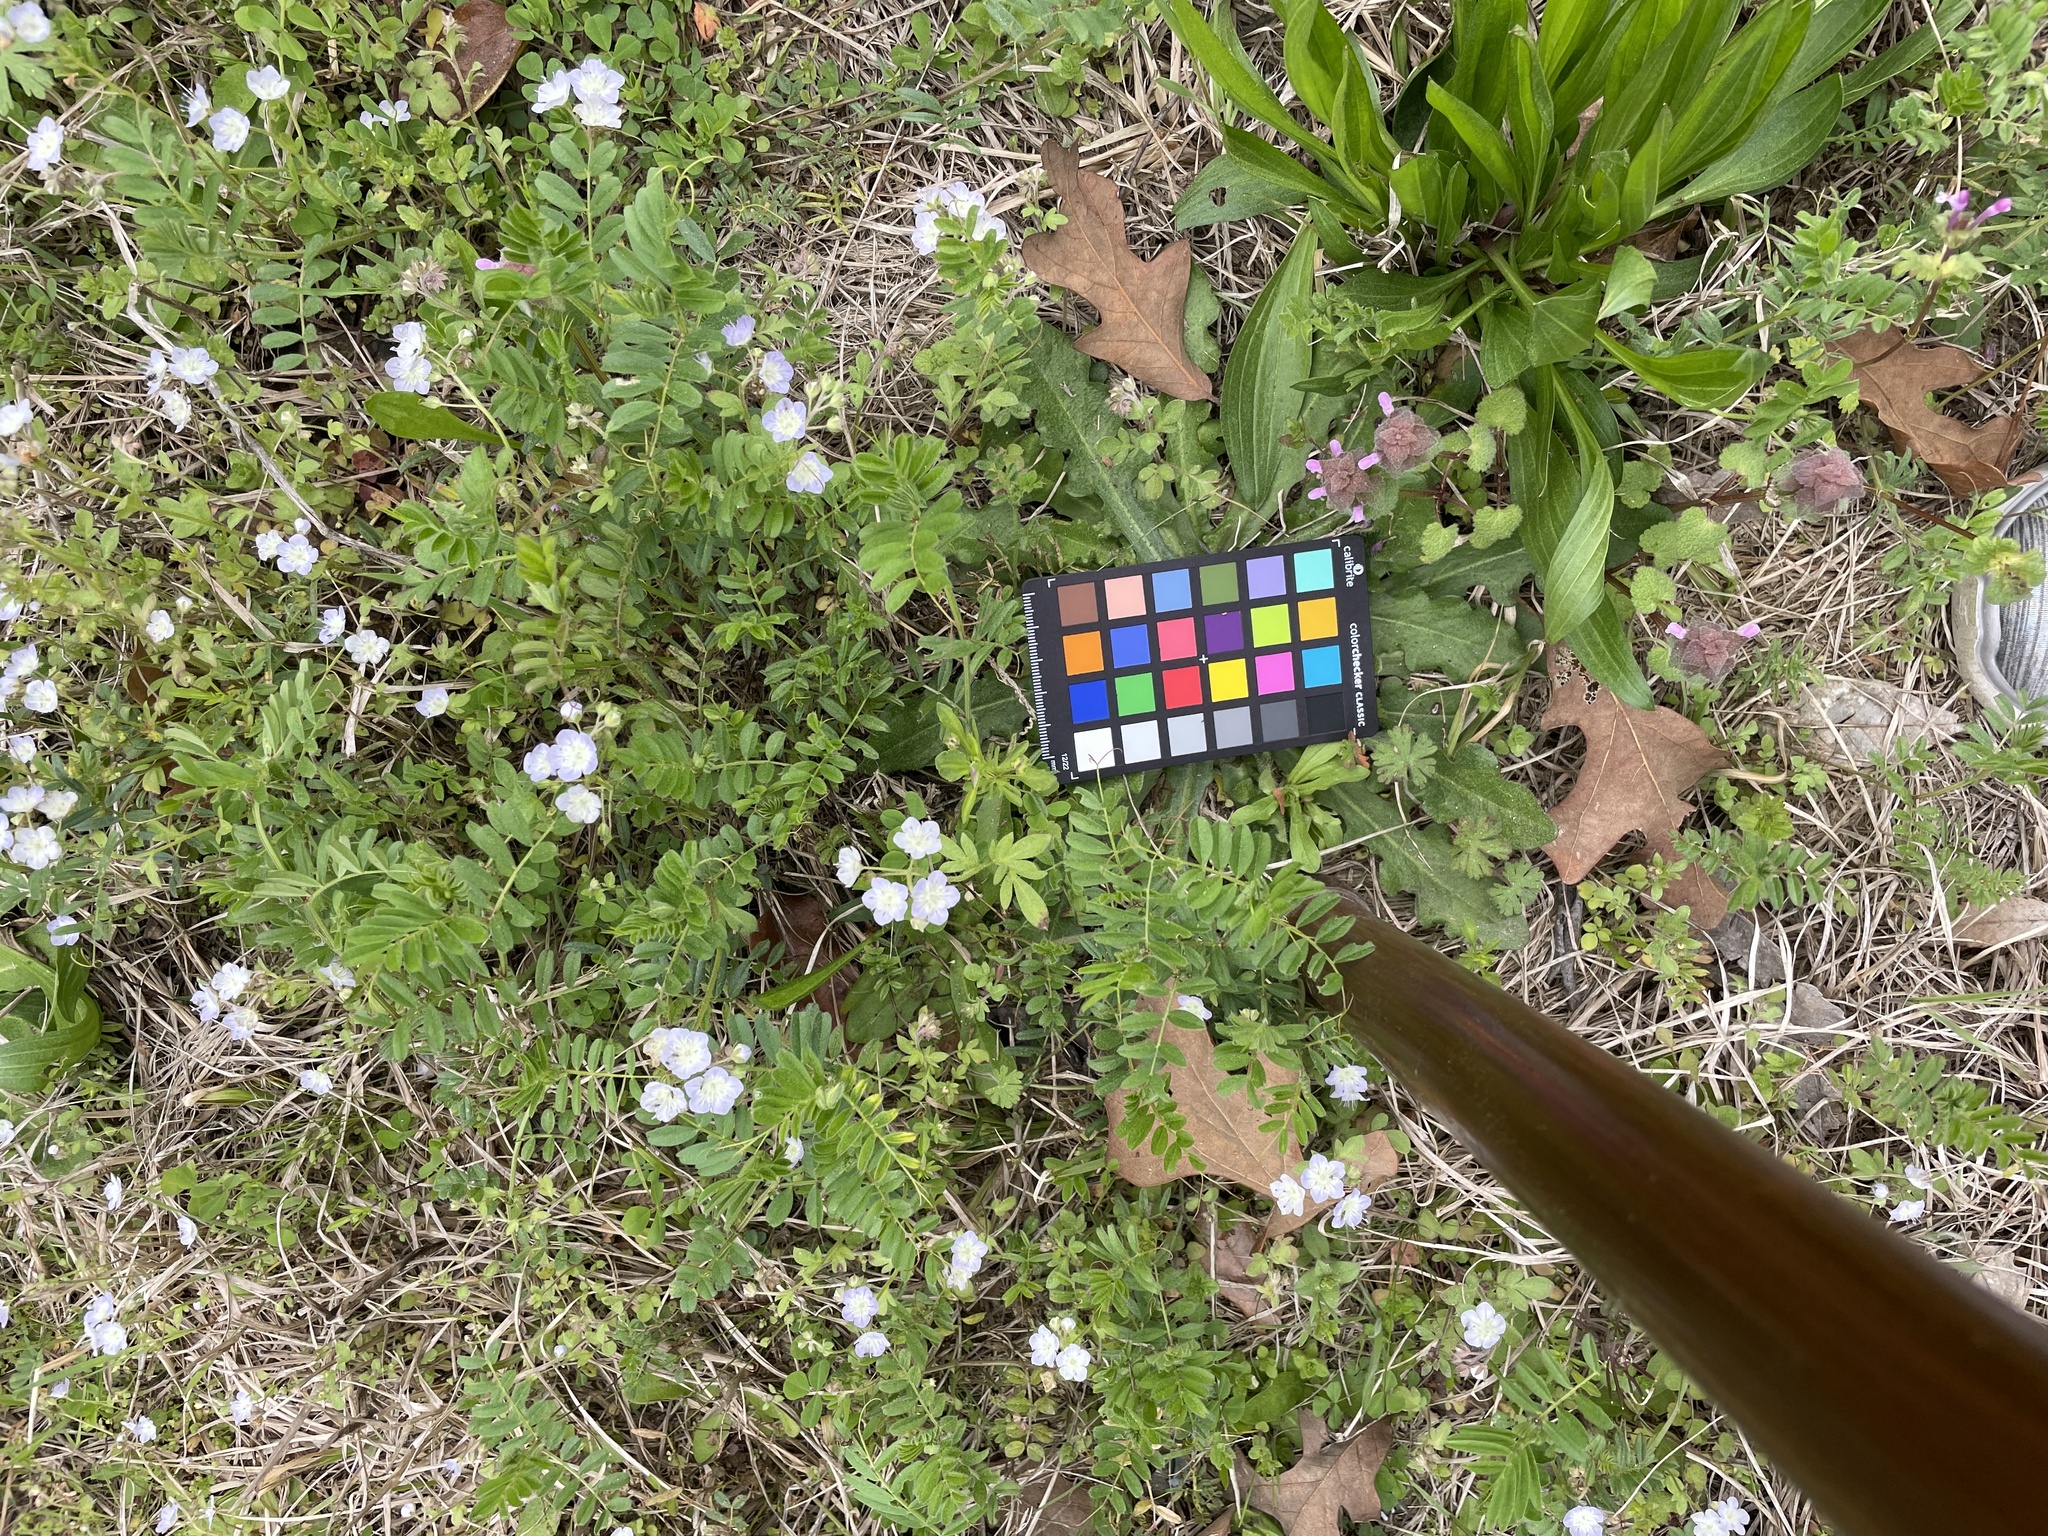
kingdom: Plantae
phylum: Tracheophyta
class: Magnoliopsida
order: Boraginales
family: Hydrophyllaceae
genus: Phacelia
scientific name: Phacelia dubia
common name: Appalachian phacelia
